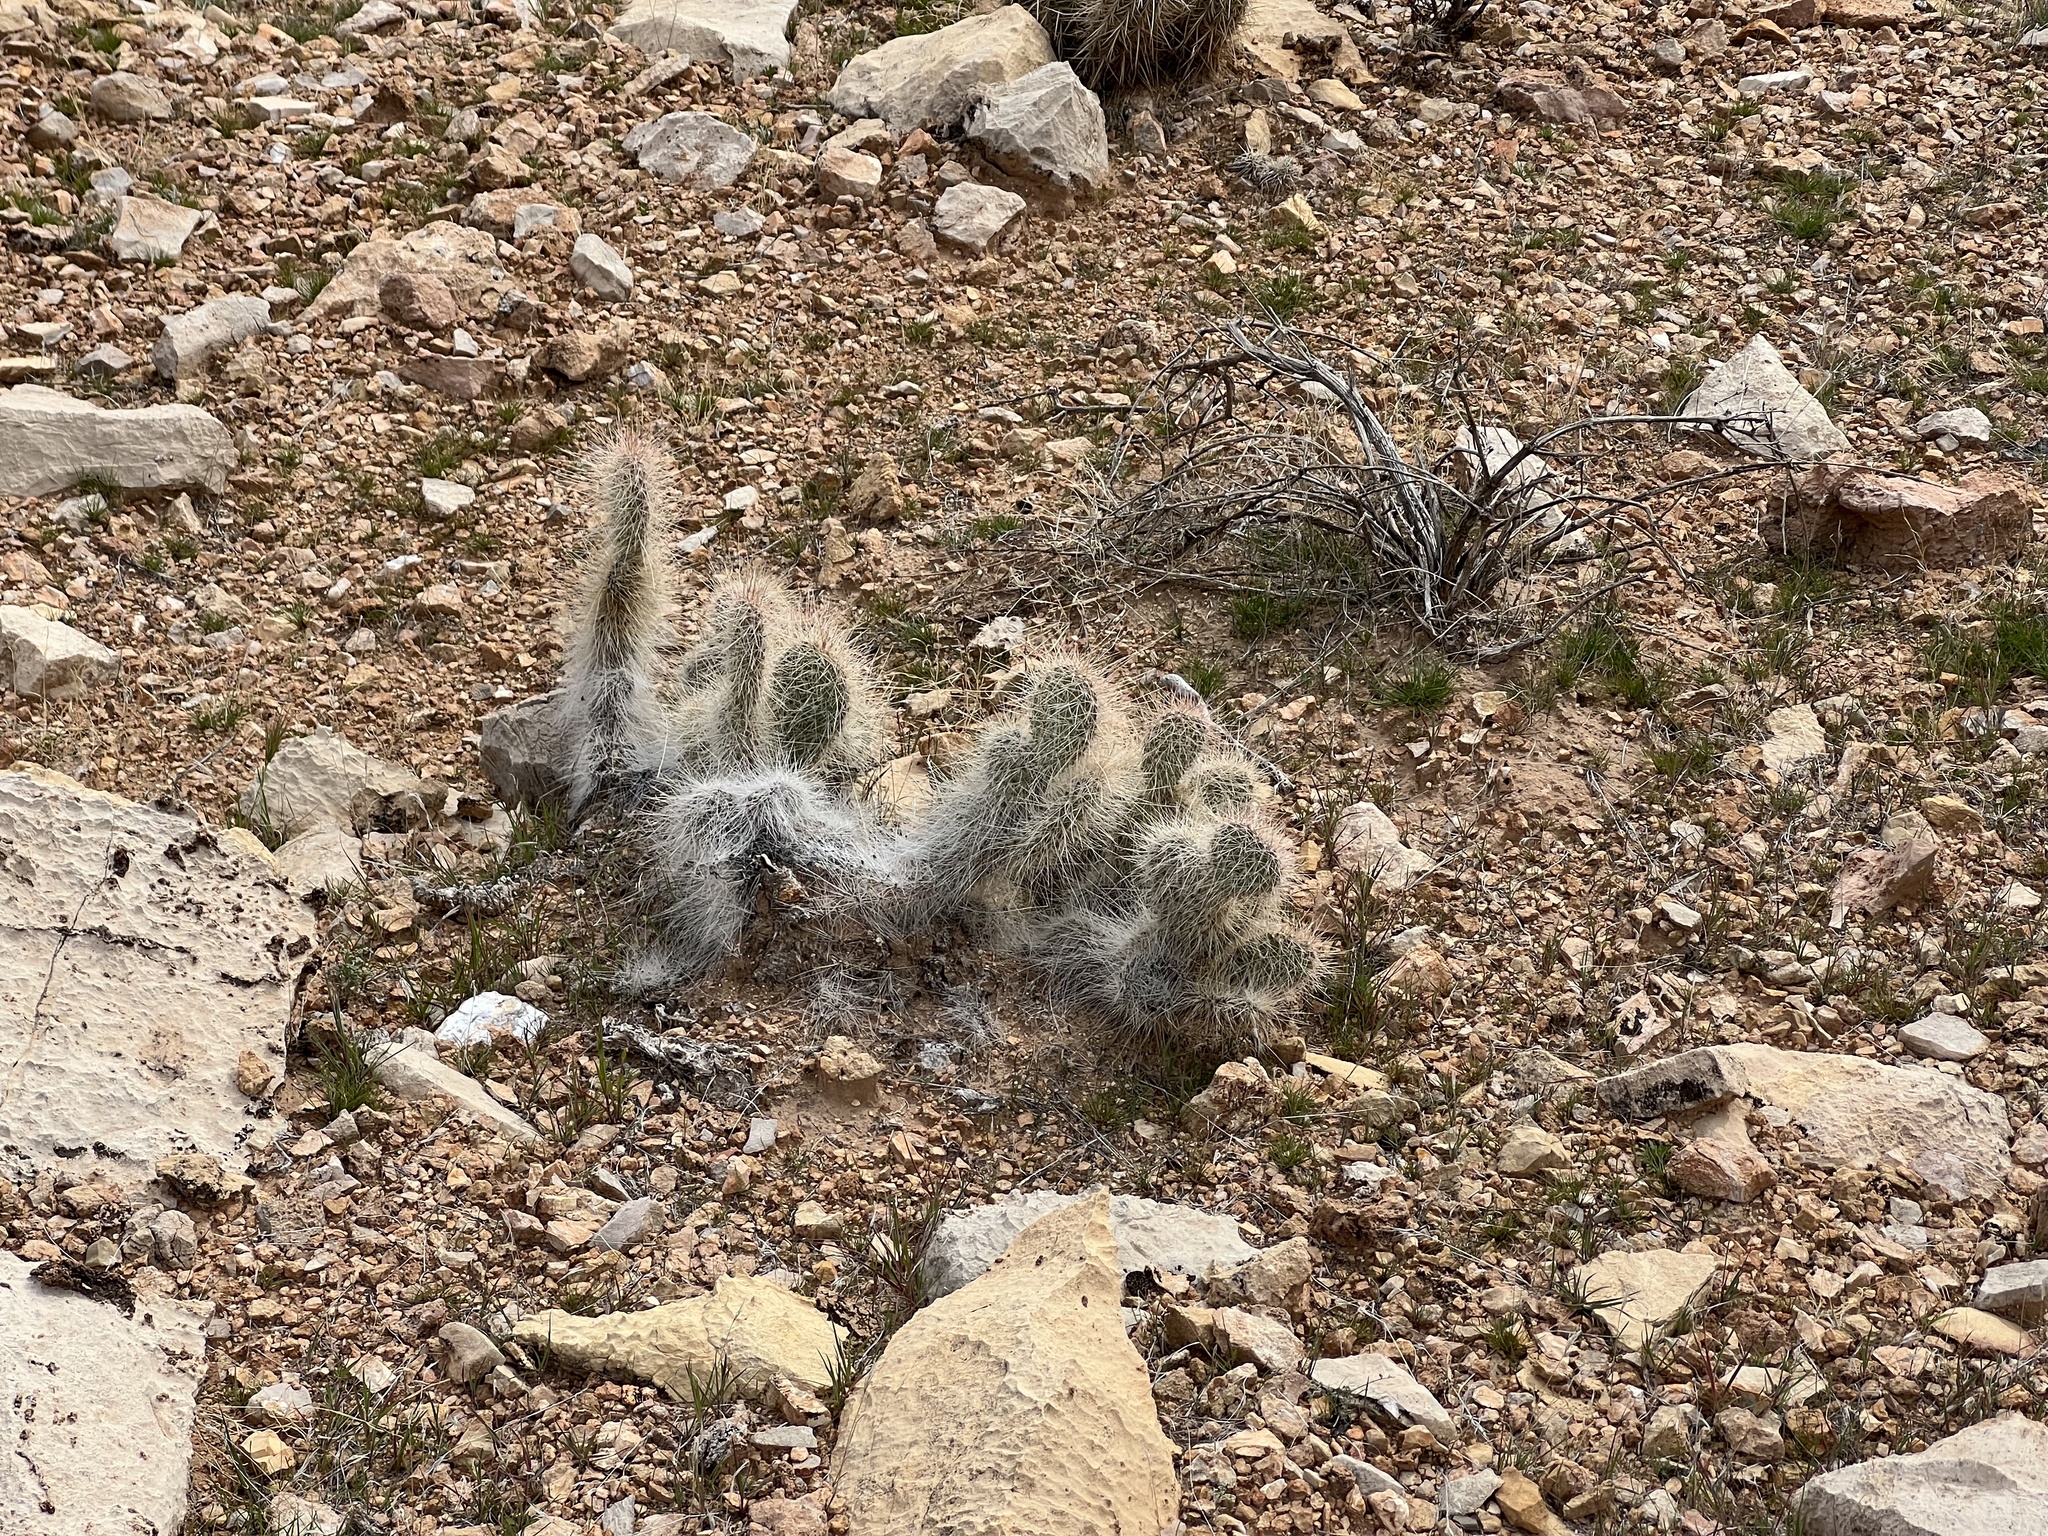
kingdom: Plantae
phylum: Tracheophyta
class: Magnoliopsida
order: Caryophyllales
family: Cactaceae
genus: Opuntia
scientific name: Opuntia polyacantha
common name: Plains prickly-pear
